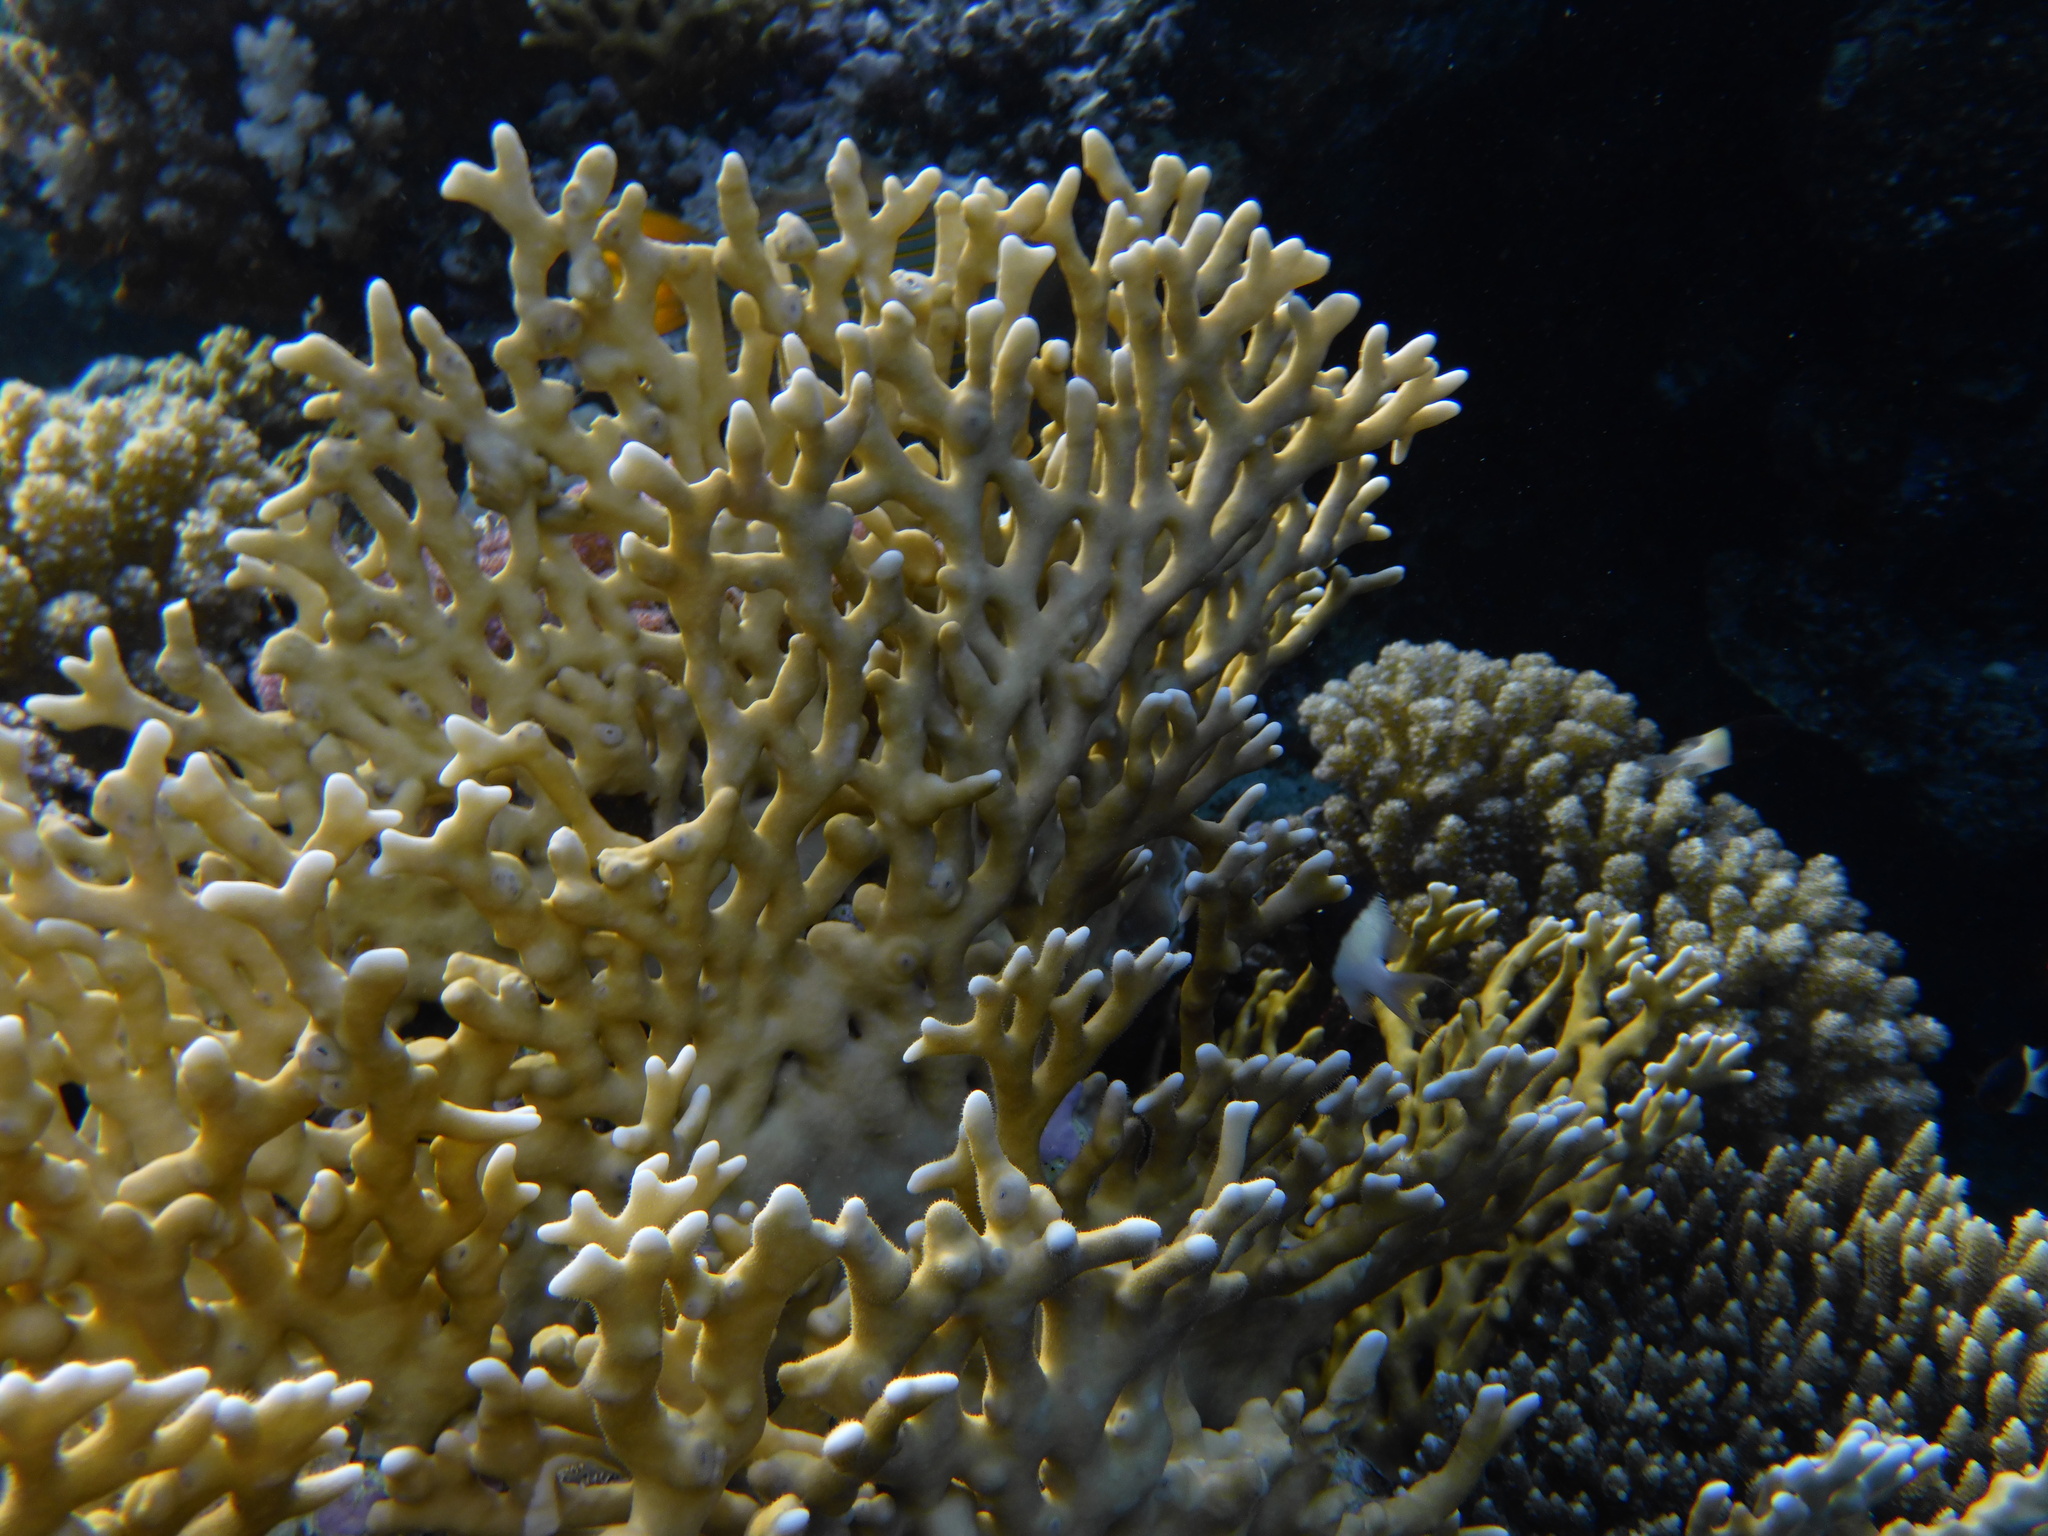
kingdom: Animalia
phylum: Cnidaria
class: Hydrozoa
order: Anthoathecata
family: Milleporidae
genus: Millepora
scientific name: Millepora dichotoma
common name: Ramified fire coral
